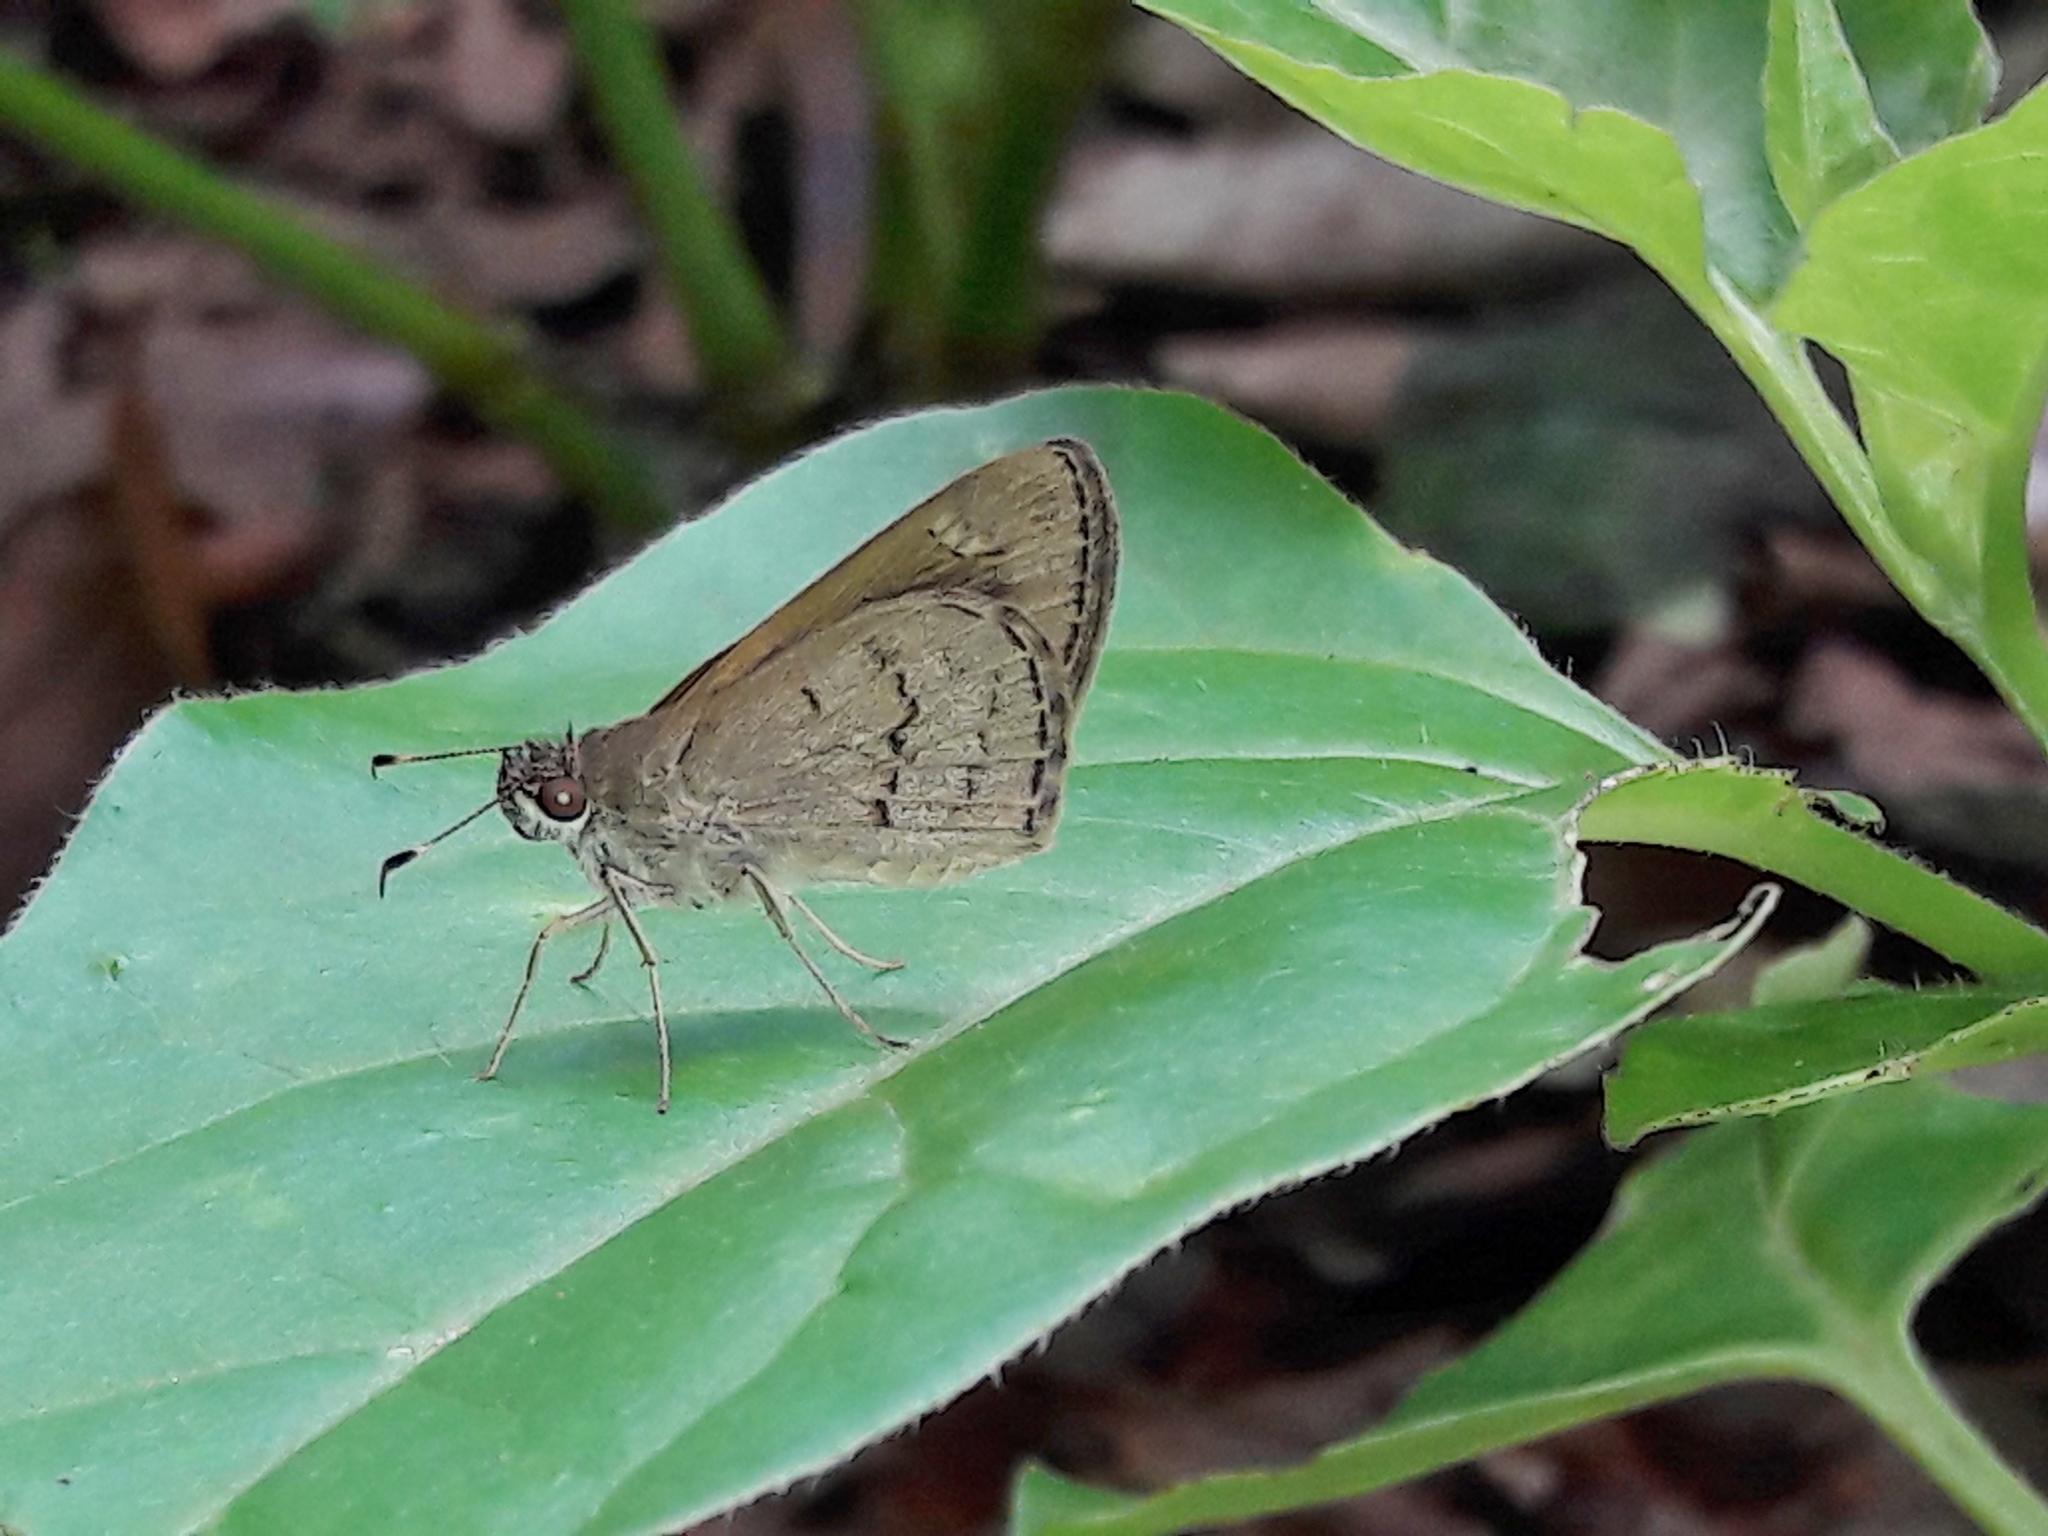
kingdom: Animalia
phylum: Arthropoda
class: Insecta
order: Lepidoptera
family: Hesperiidae
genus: Cymaenes
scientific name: Cymaenes gisca
